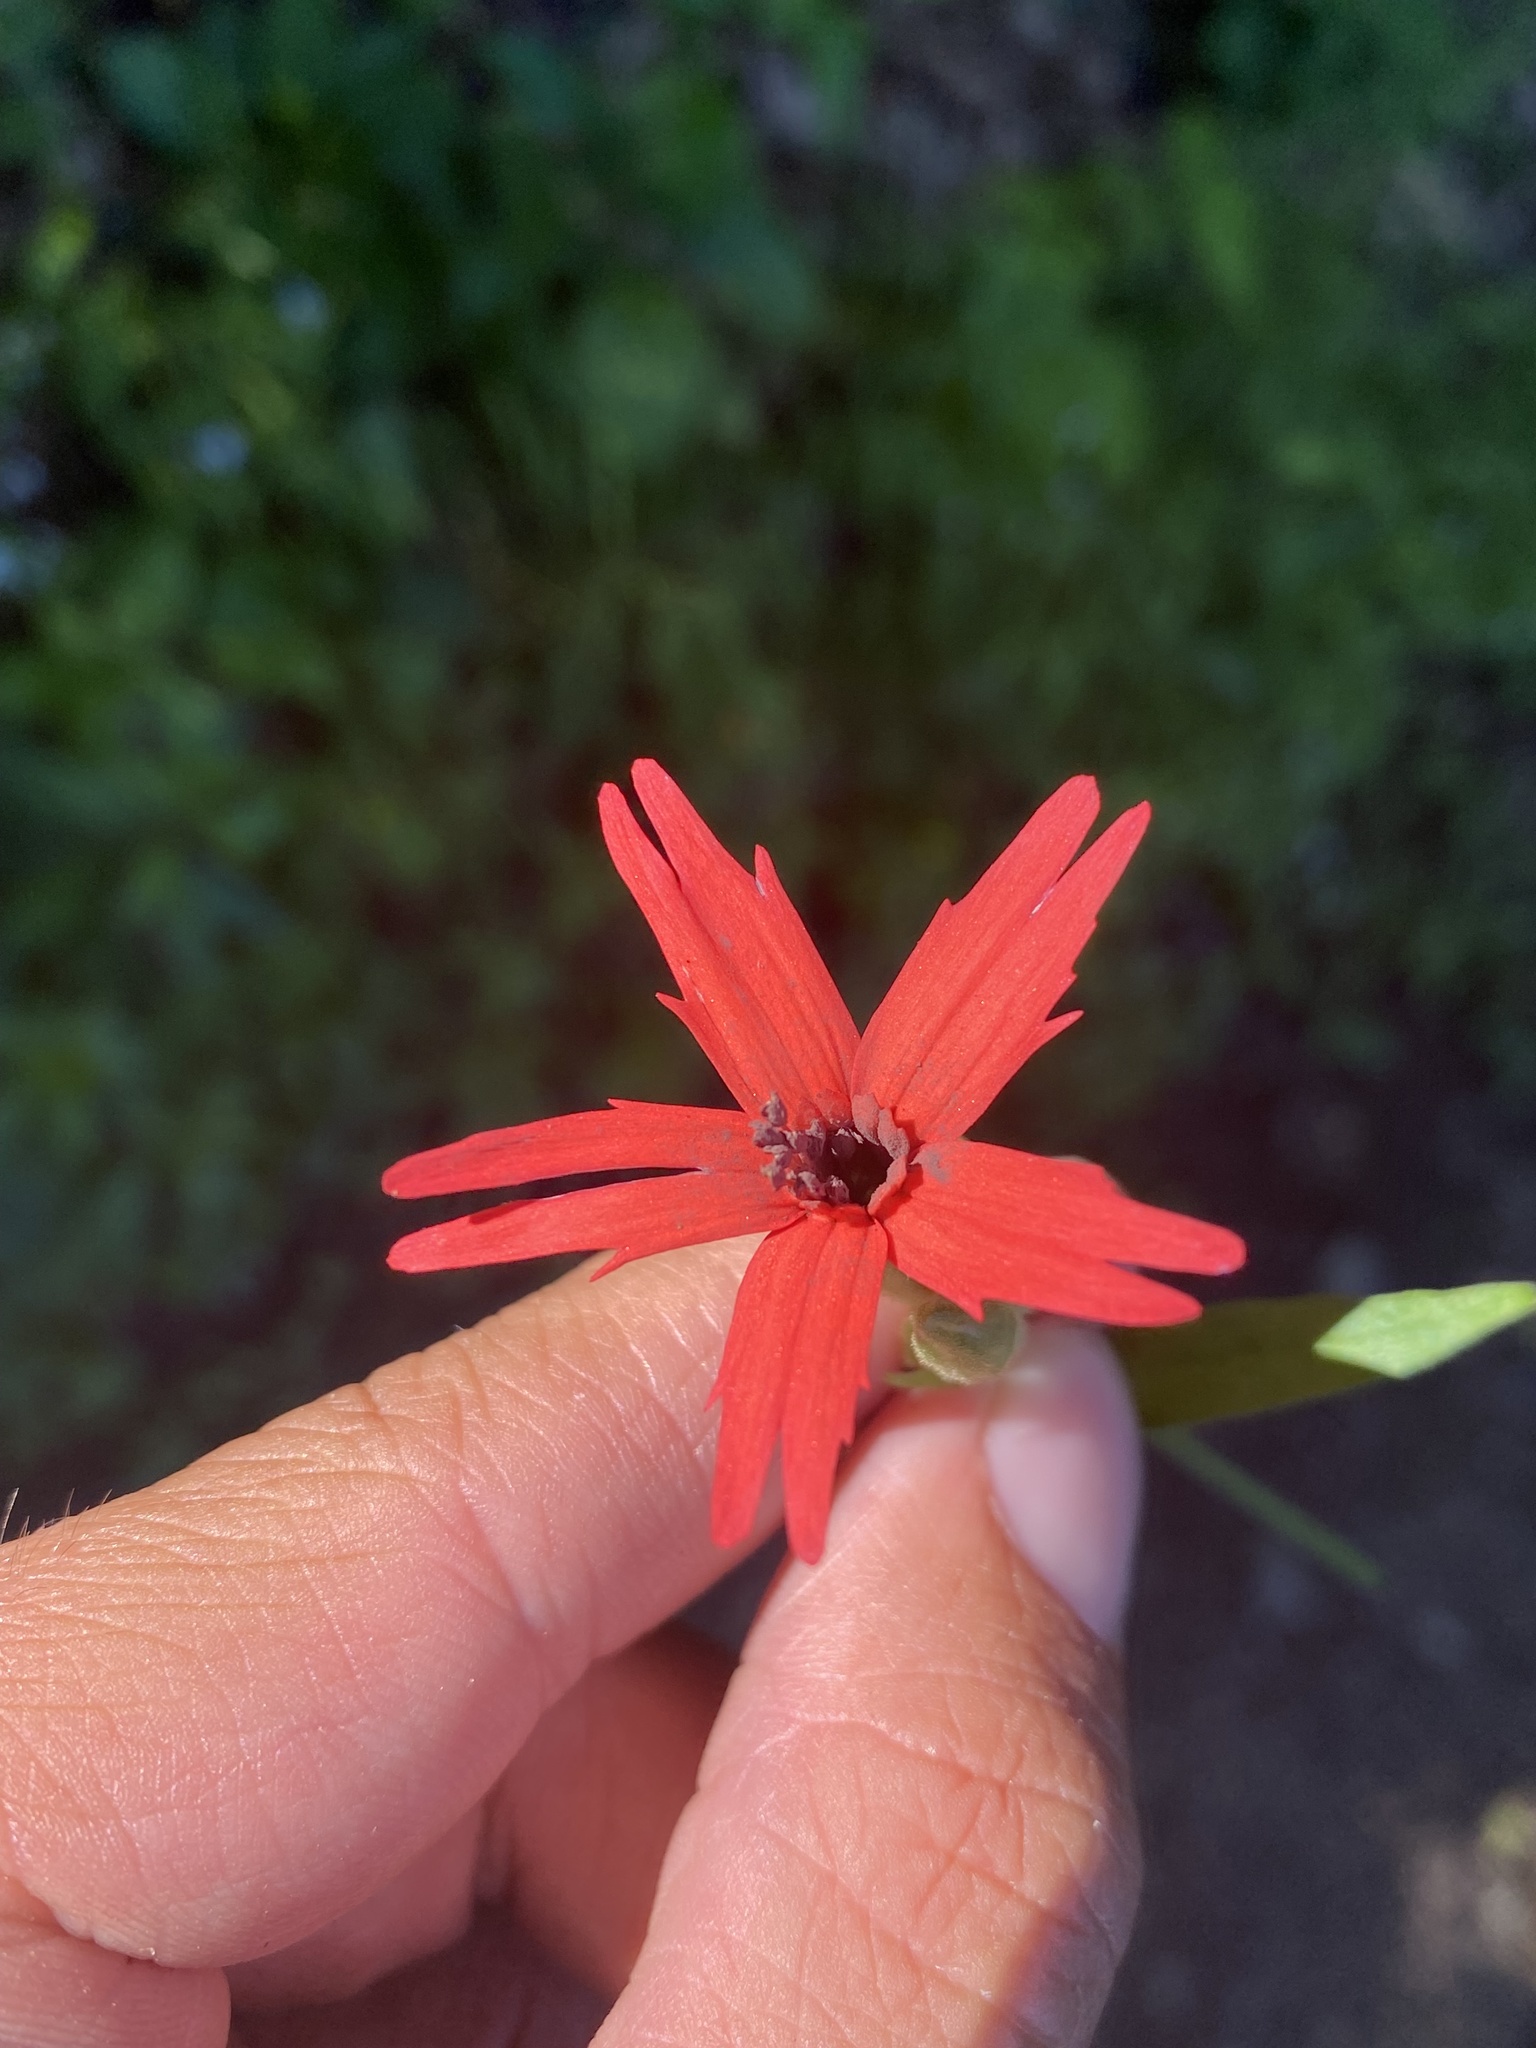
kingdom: Plantae
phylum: Tracheophyta
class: Magnoliopsida
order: Caryophyllales
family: Caryophyllaceae
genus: Silene
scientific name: Silene virginica
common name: Fire-pink
